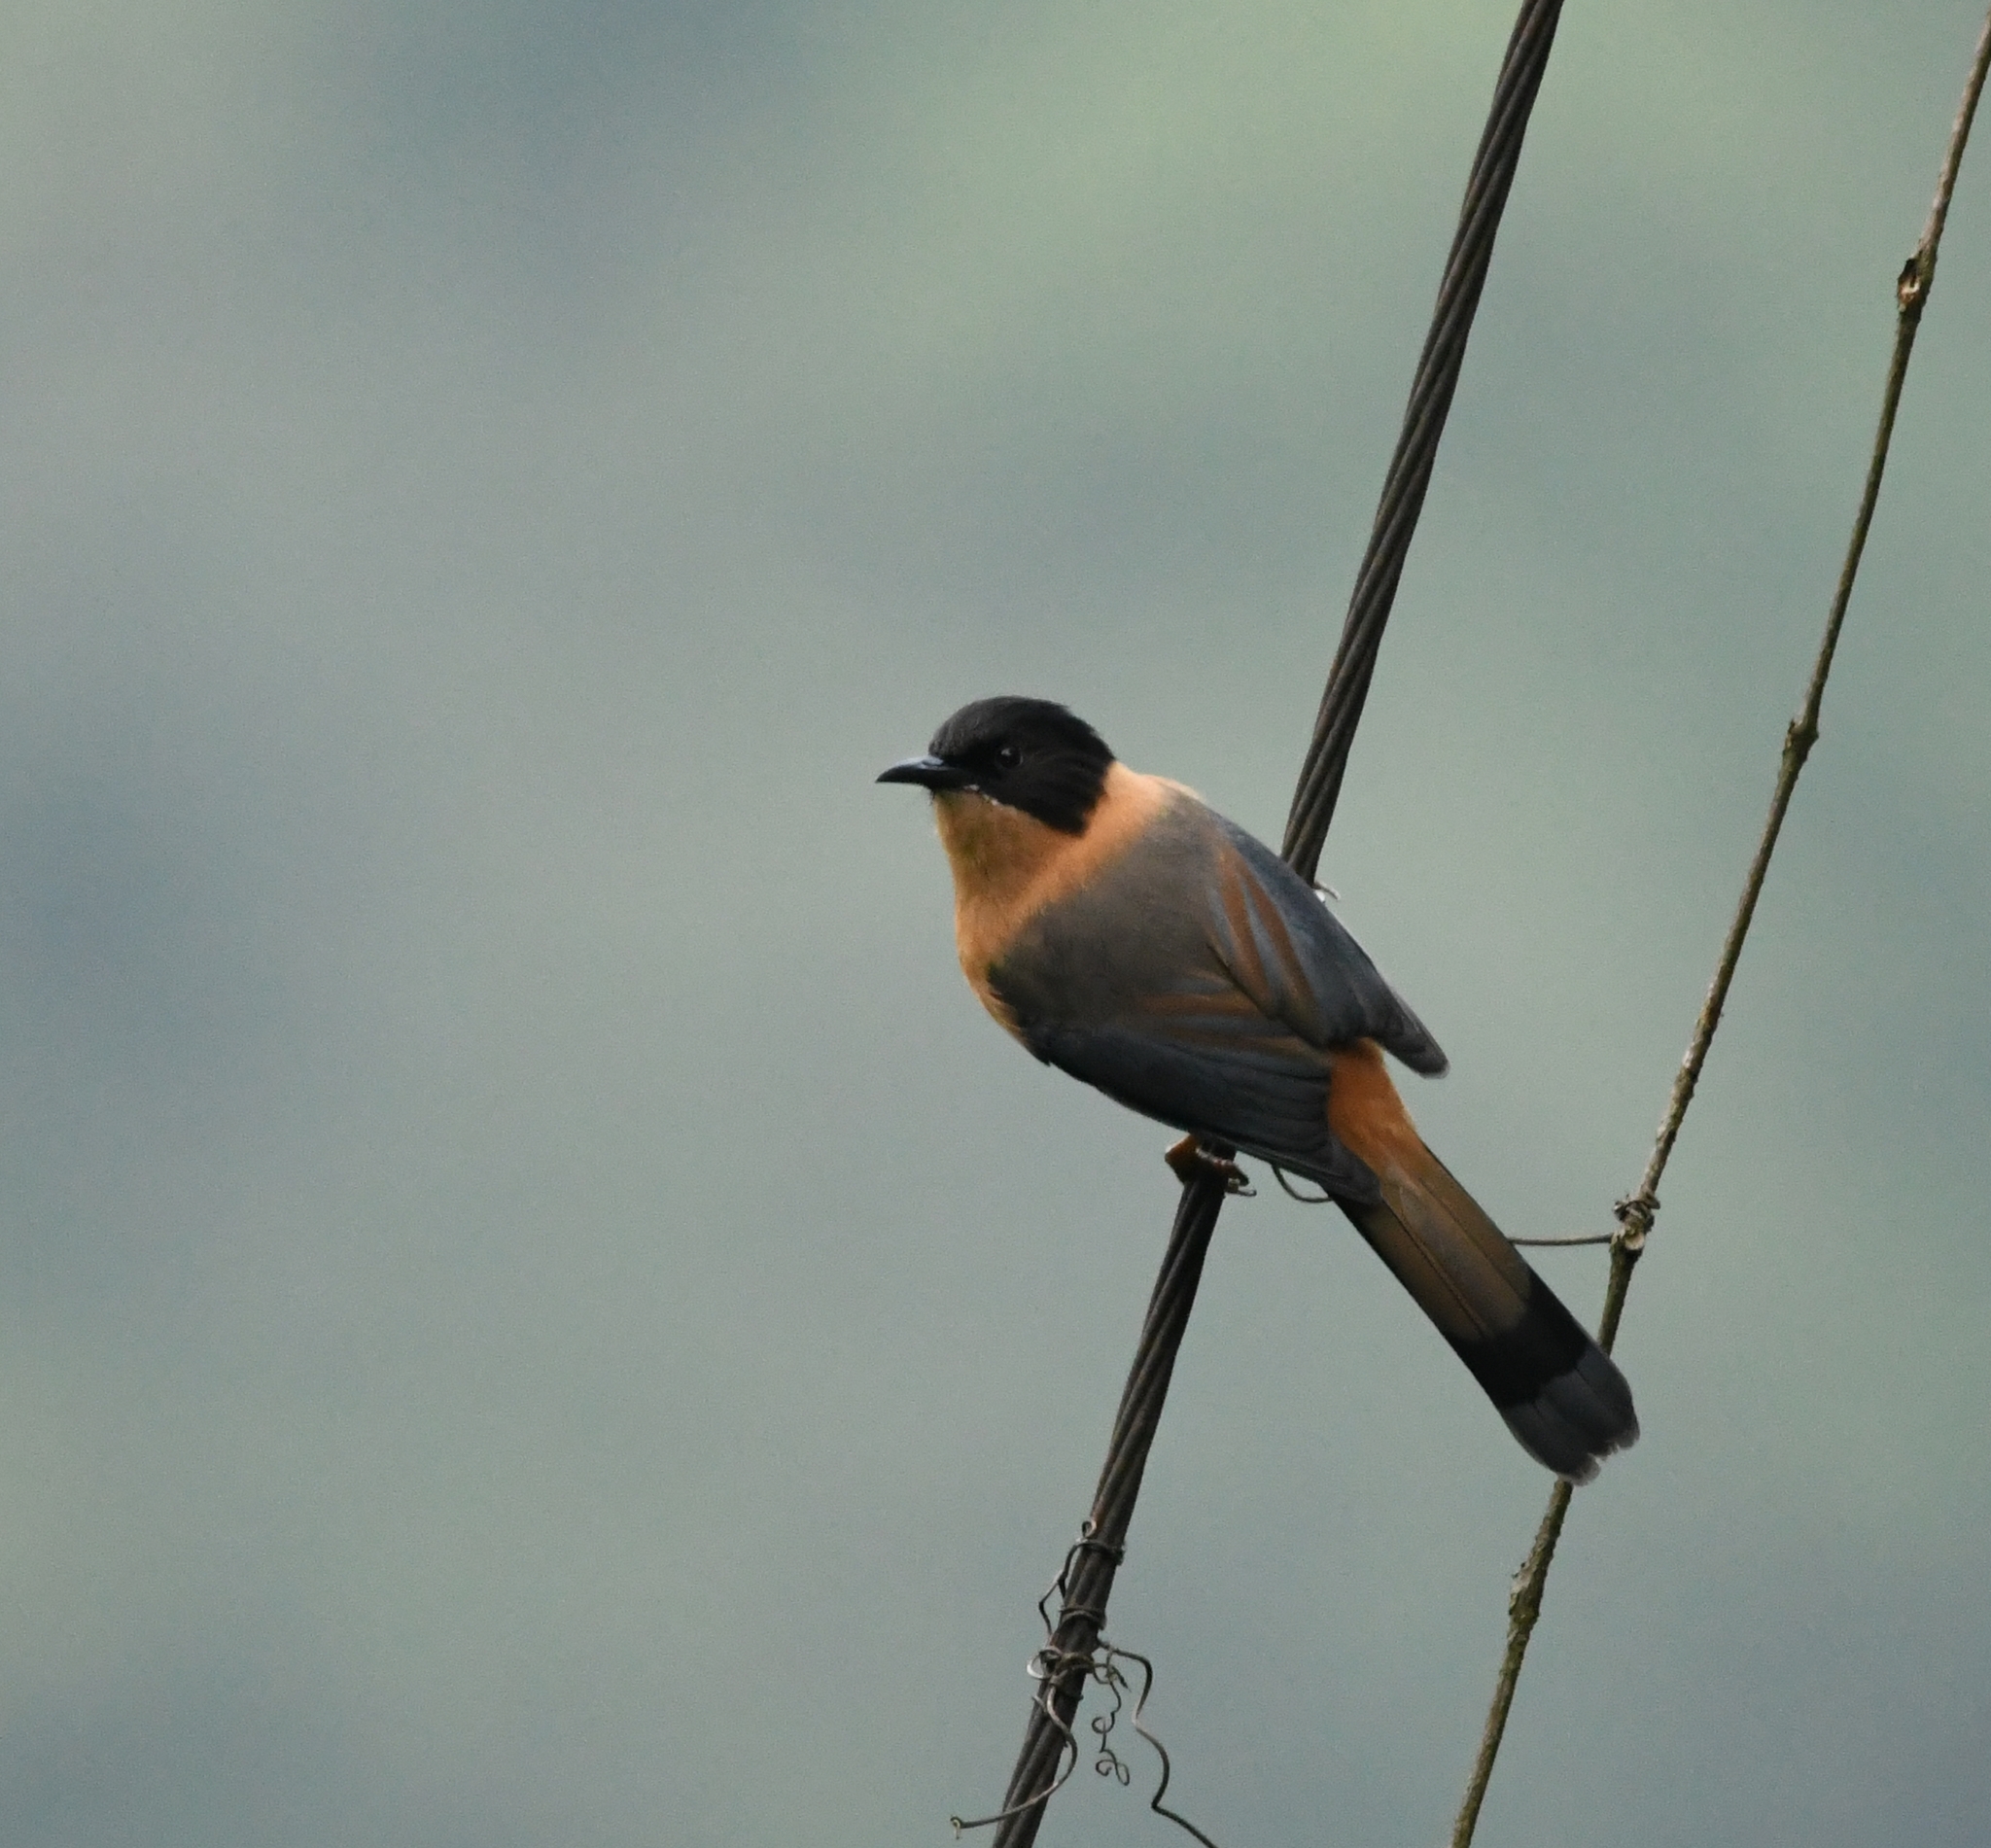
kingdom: Animalia
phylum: Chordata
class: Aves
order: Passeriformes
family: Leiothrichidae
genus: Heterophasia
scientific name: Heterophasia capistrata
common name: Rufous sibia
